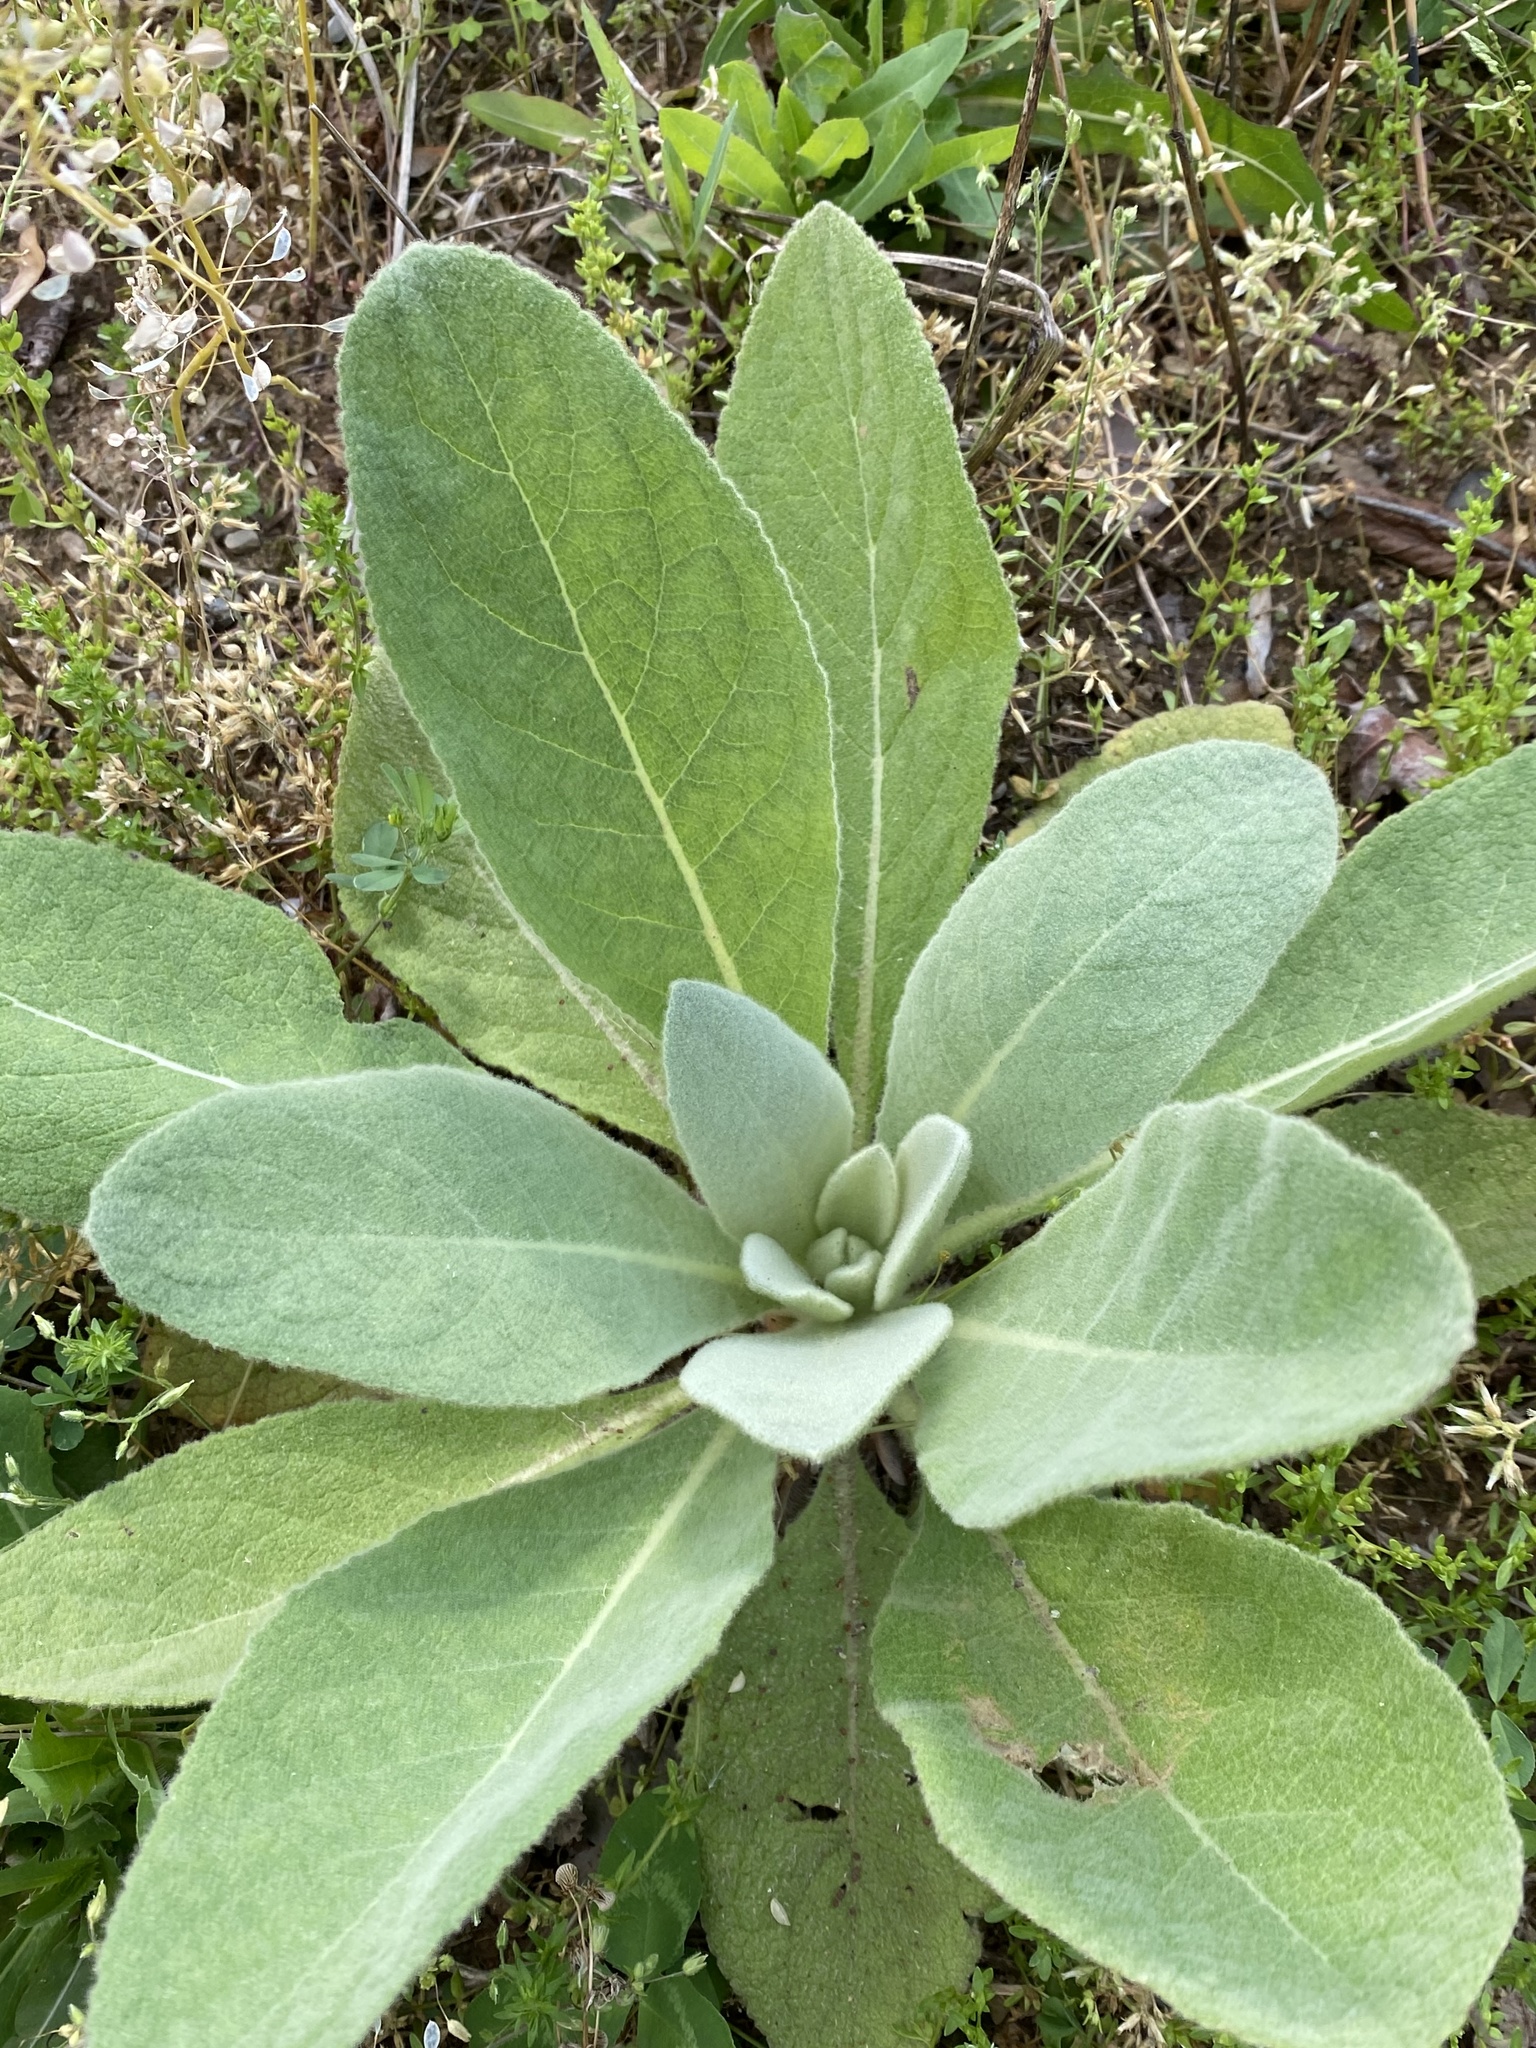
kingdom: Plantae
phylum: Tracheophyta
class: Magnoliopsida
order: Lamiales
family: Scrophulariaceae
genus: Verbascum
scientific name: Verbascum thapsus
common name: Common mullein
